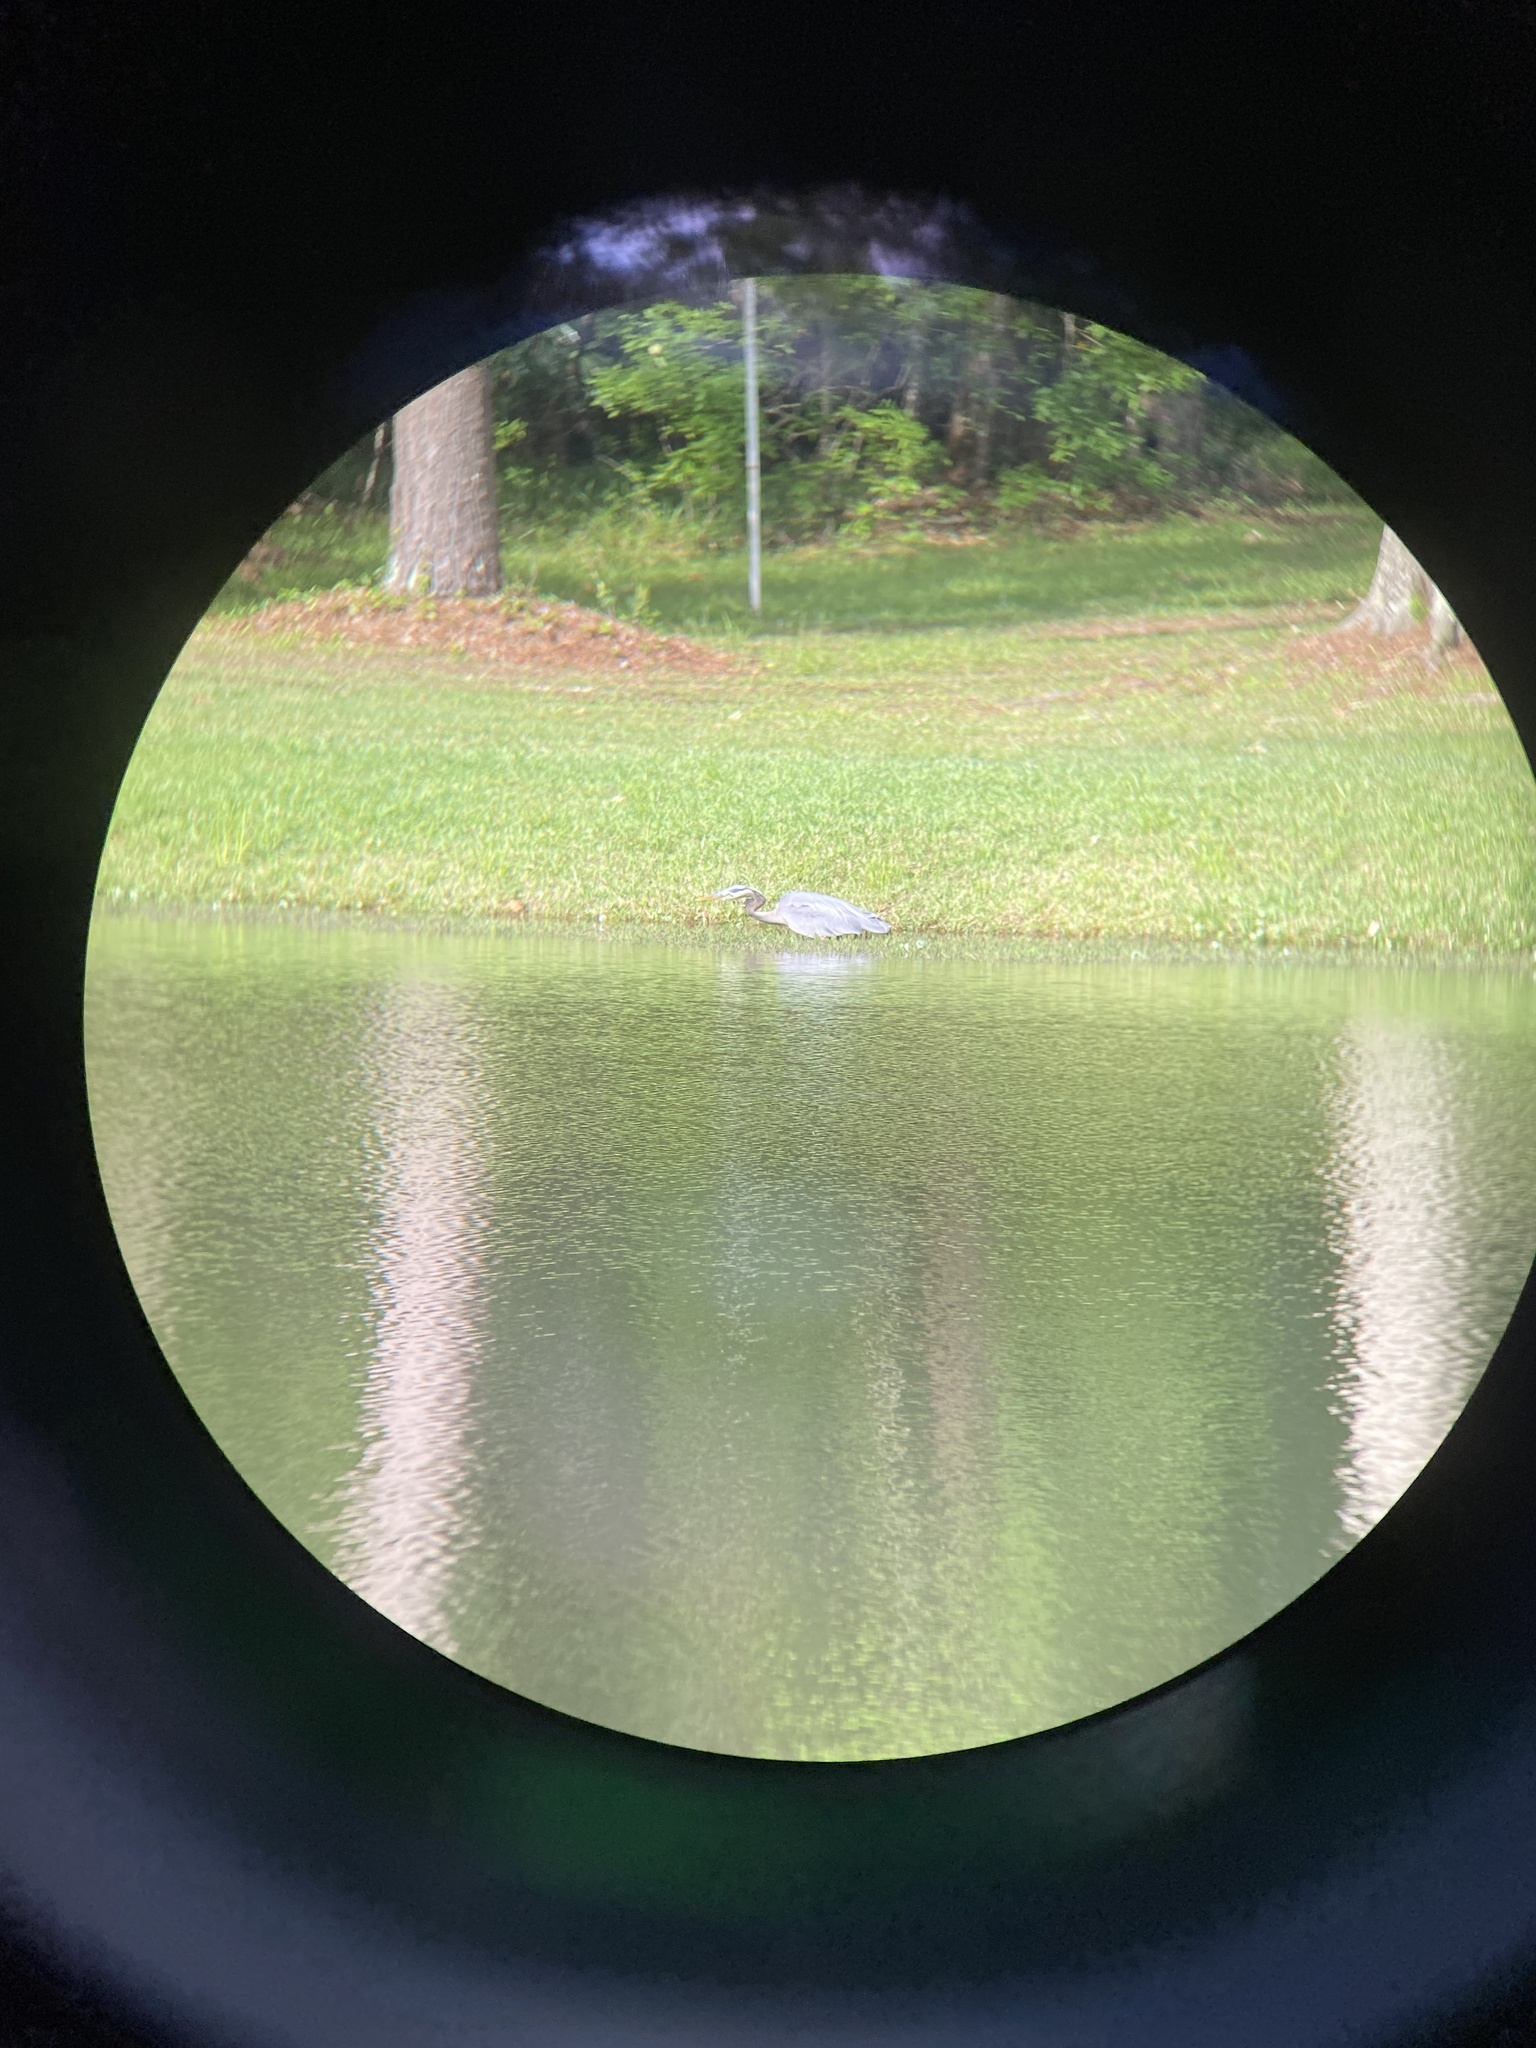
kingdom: Animalia
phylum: Chordata
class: Aves
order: Pelecaniformes
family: Ardeidae
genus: Ardea
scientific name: Ardea herodias
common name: Great blue heron
